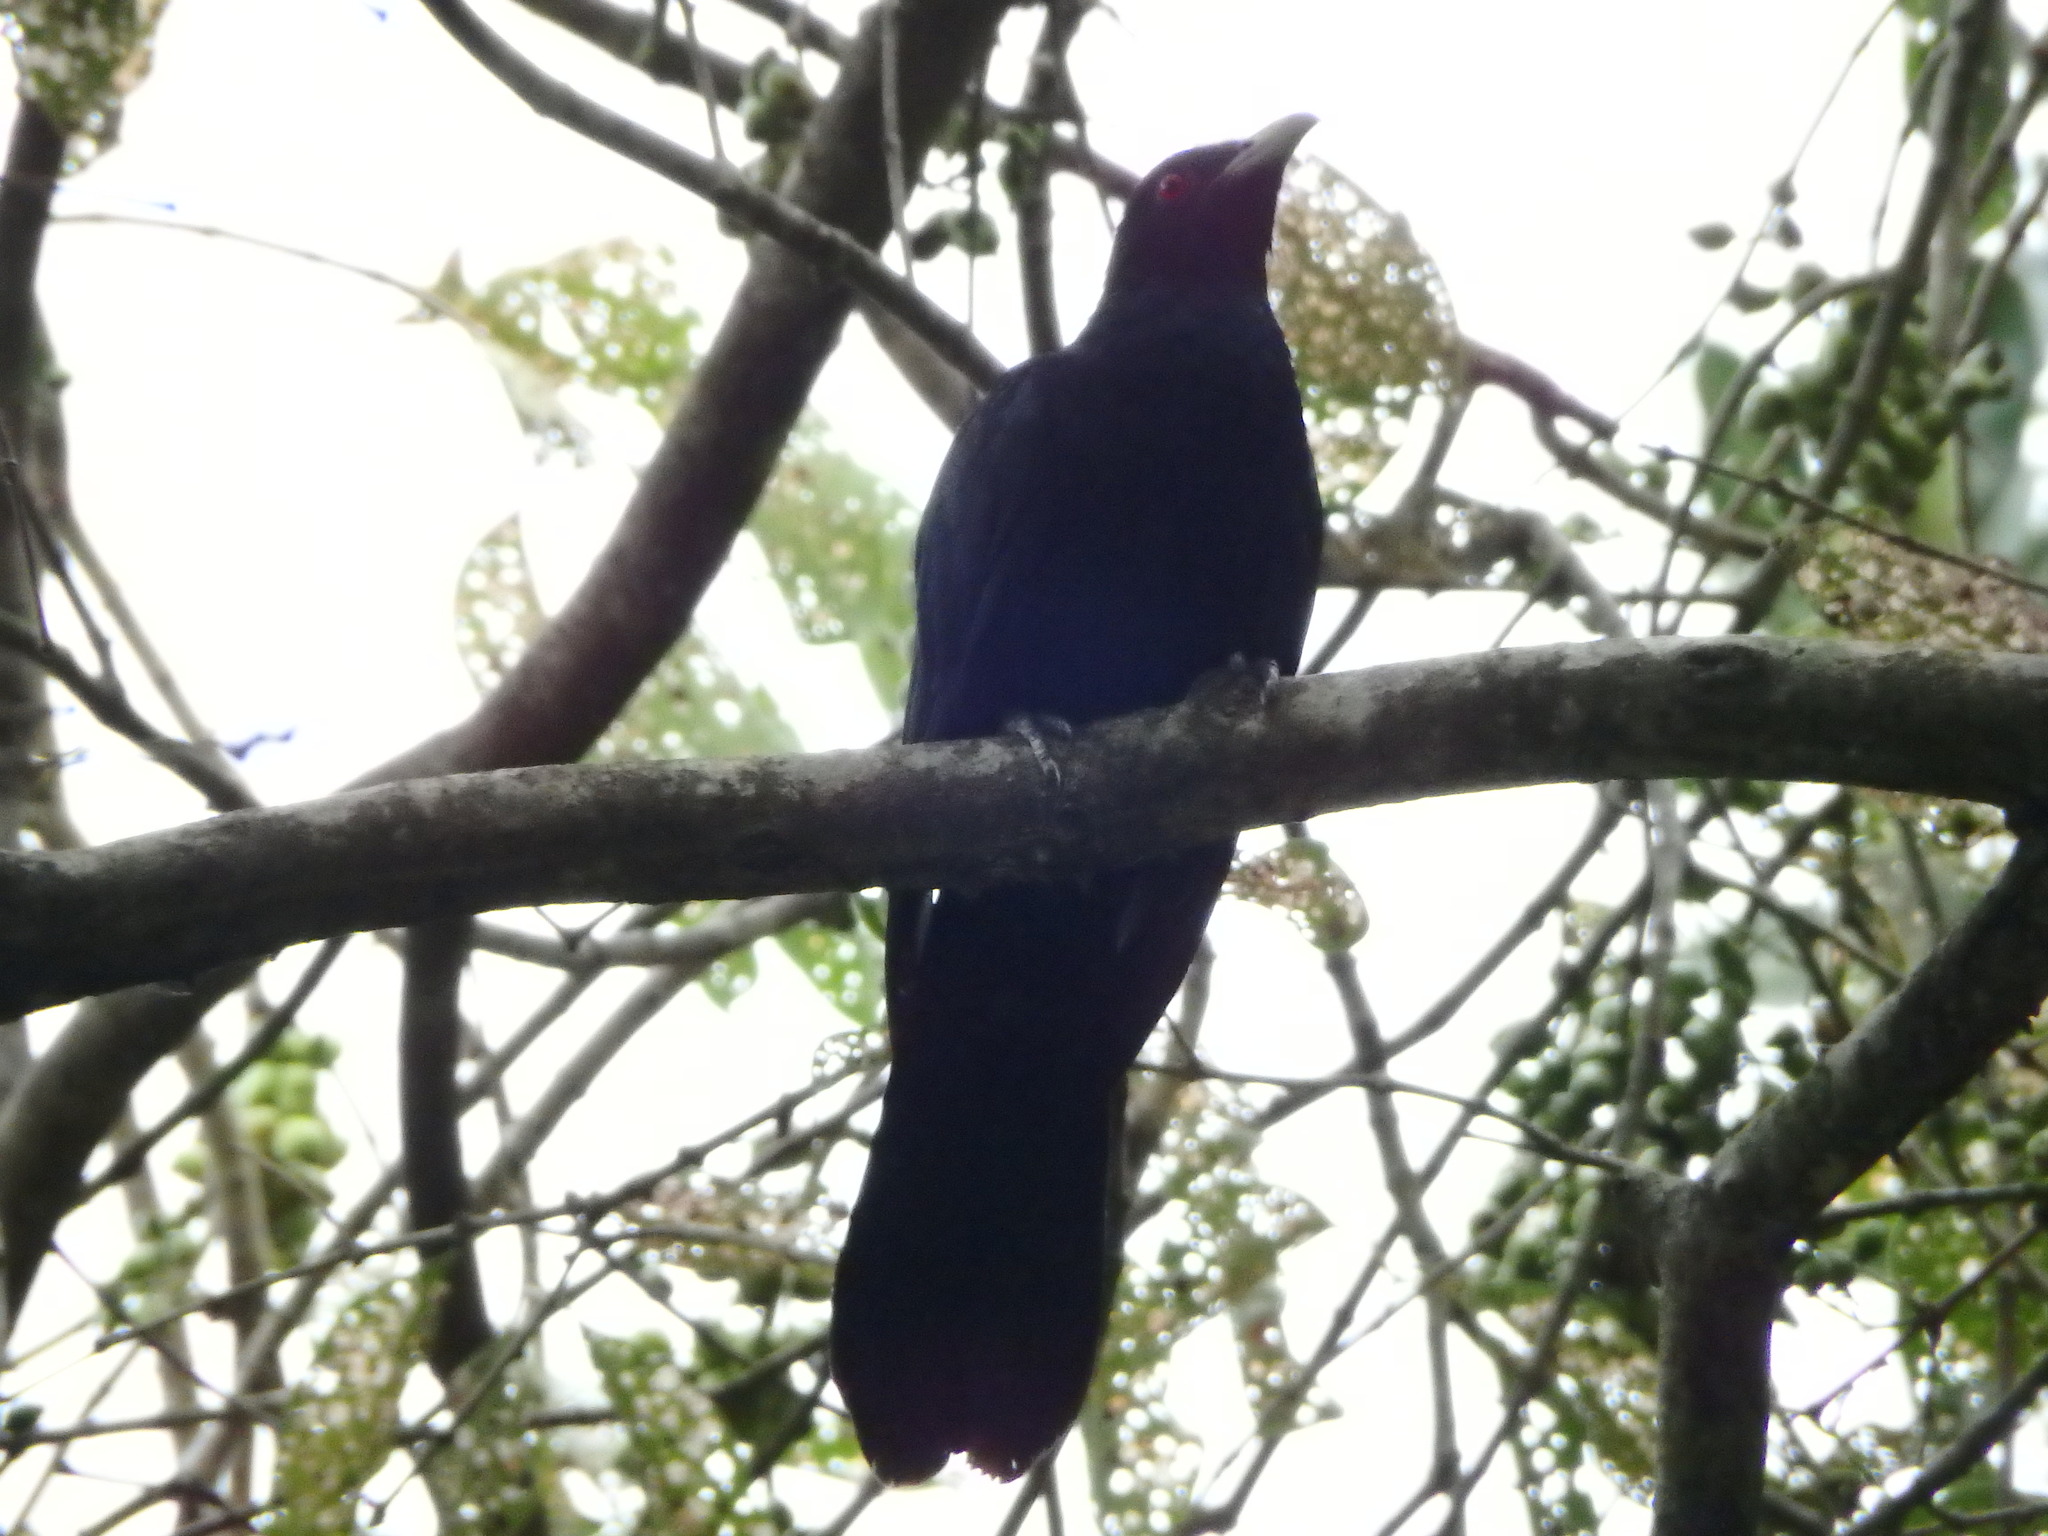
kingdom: Animalia
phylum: Chordata
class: Aves
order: Cuculiformes
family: Cuculidae
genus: Eudynamys
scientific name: Eudynamys scolopaceus
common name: Asian koel
